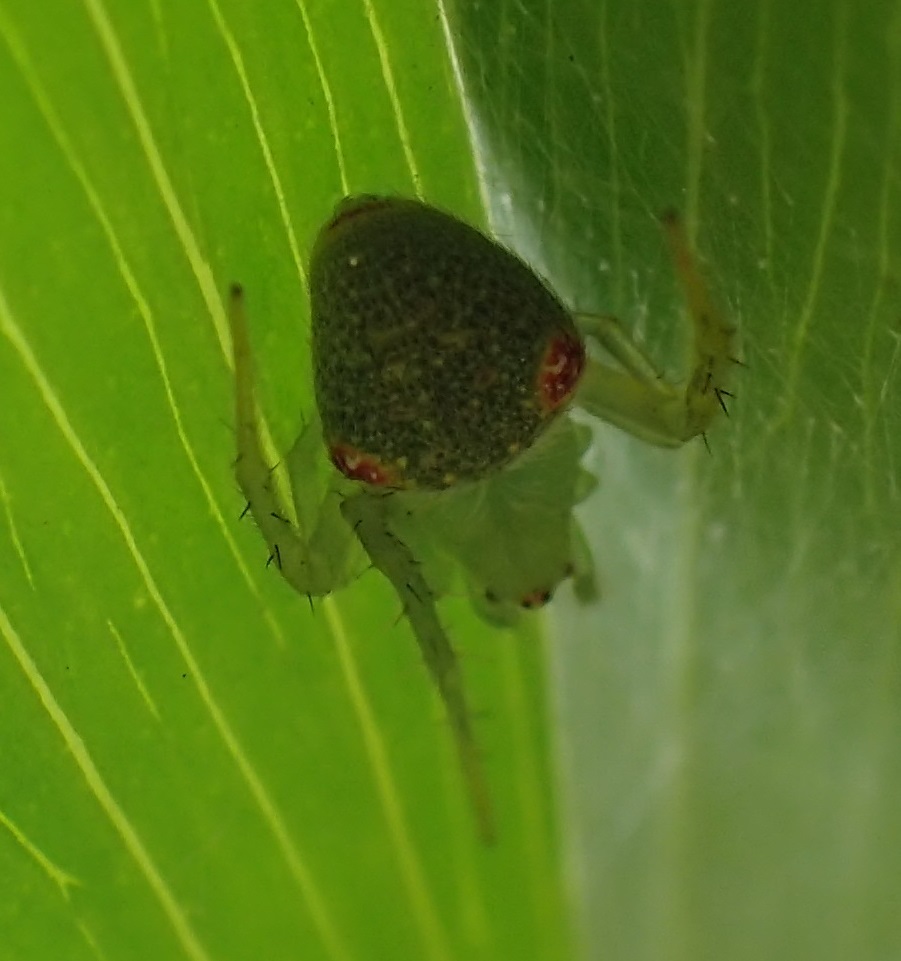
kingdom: Animalia
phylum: Arthropoda
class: Arachnida
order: Araneae
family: Araneidae
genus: Araneus
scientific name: Araneus circulissparsus
